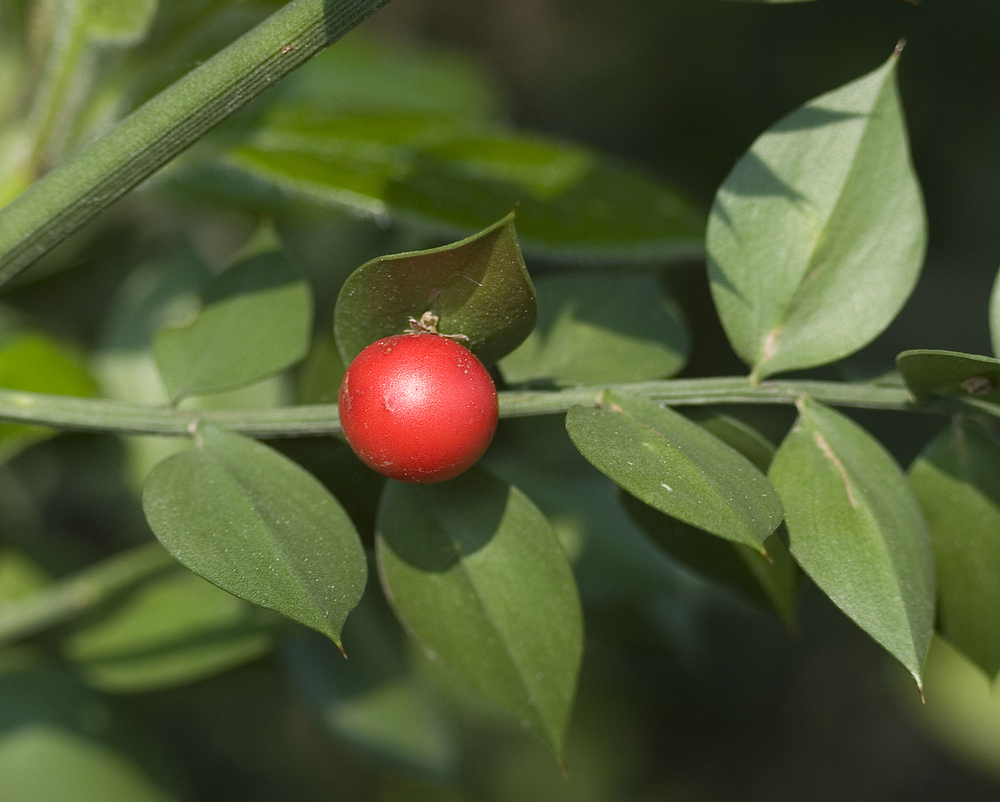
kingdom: Plantae
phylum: Tracheophyta
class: Liliopsida
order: Asparagales
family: Asparagaceae
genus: Ruscus
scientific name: Ruscus aculeatus
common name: Butcher's-broom
